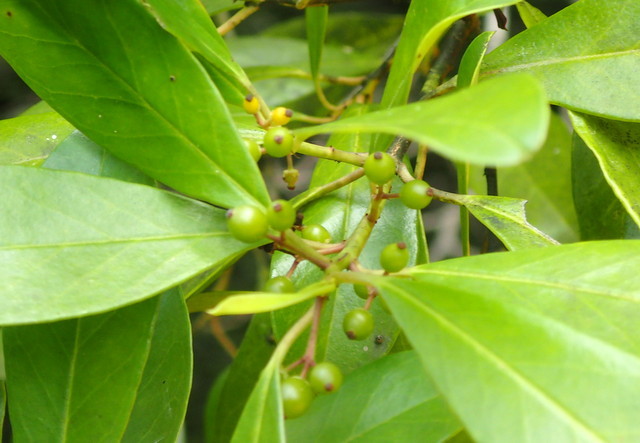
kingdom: Plantae
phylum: Tracheophyta
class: Magnoliopsida
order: Aquifoliales
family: Aquifoliaceae
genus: Ilex
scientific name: Ilex cassine
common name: Dahoon
